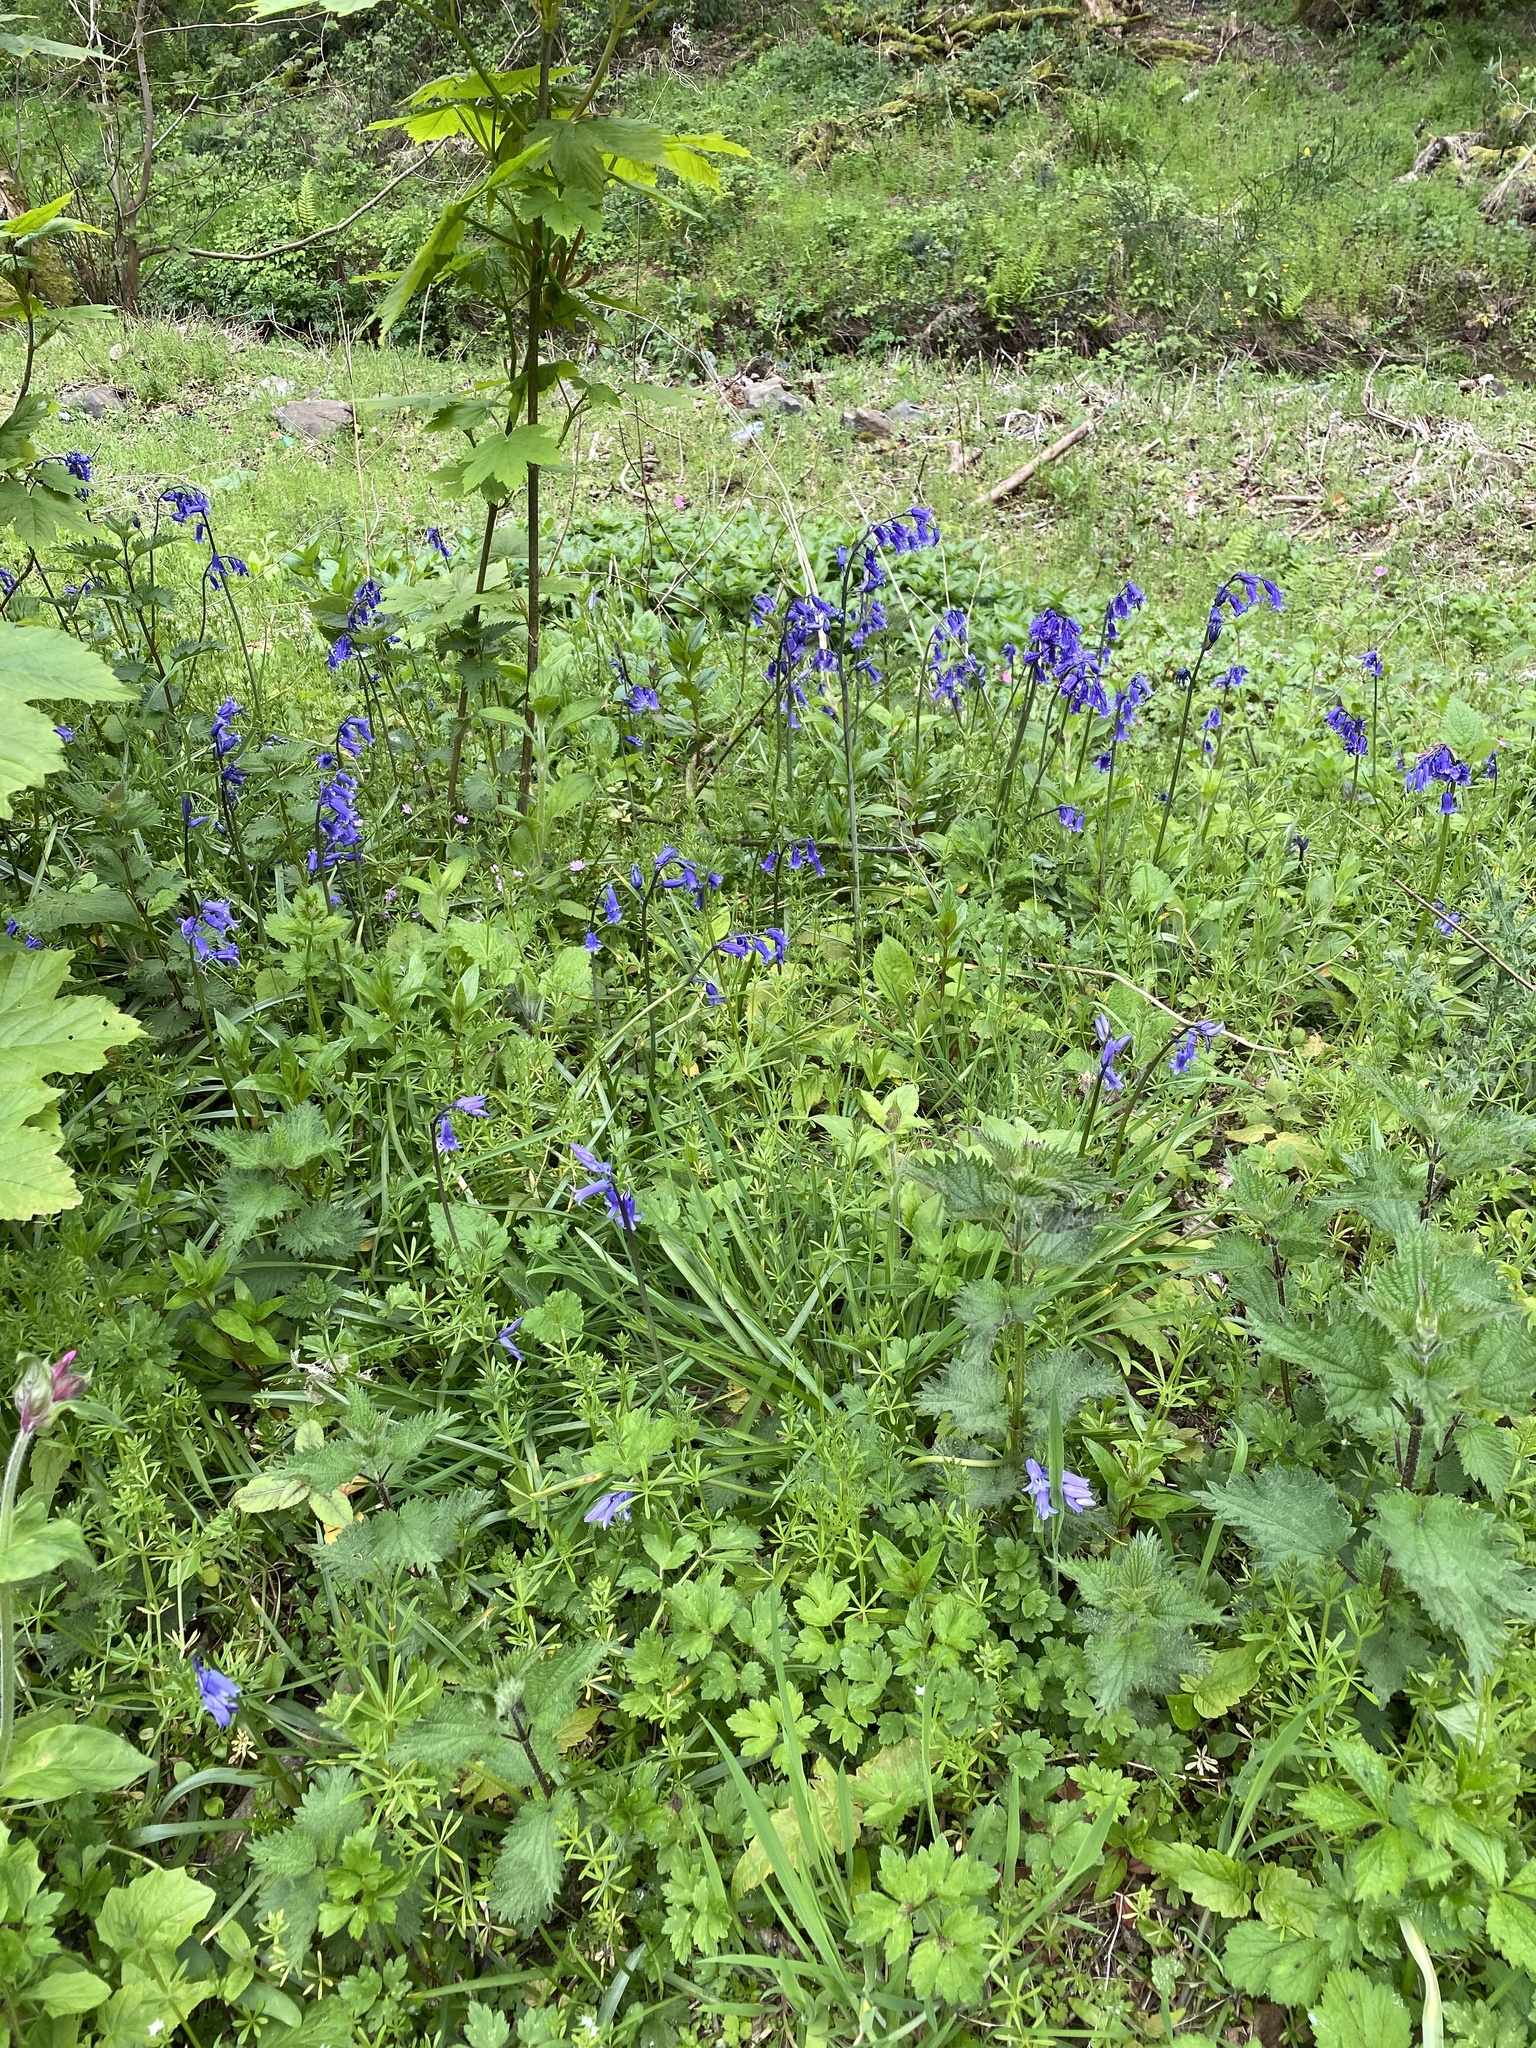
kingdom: Plantae
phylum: Tracheophyta
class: Liliopsida
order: Asparagales
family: Asparagaceae
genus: Hyacinthoides
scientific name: Hyacinthoides non-scripta
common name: Bluebell
